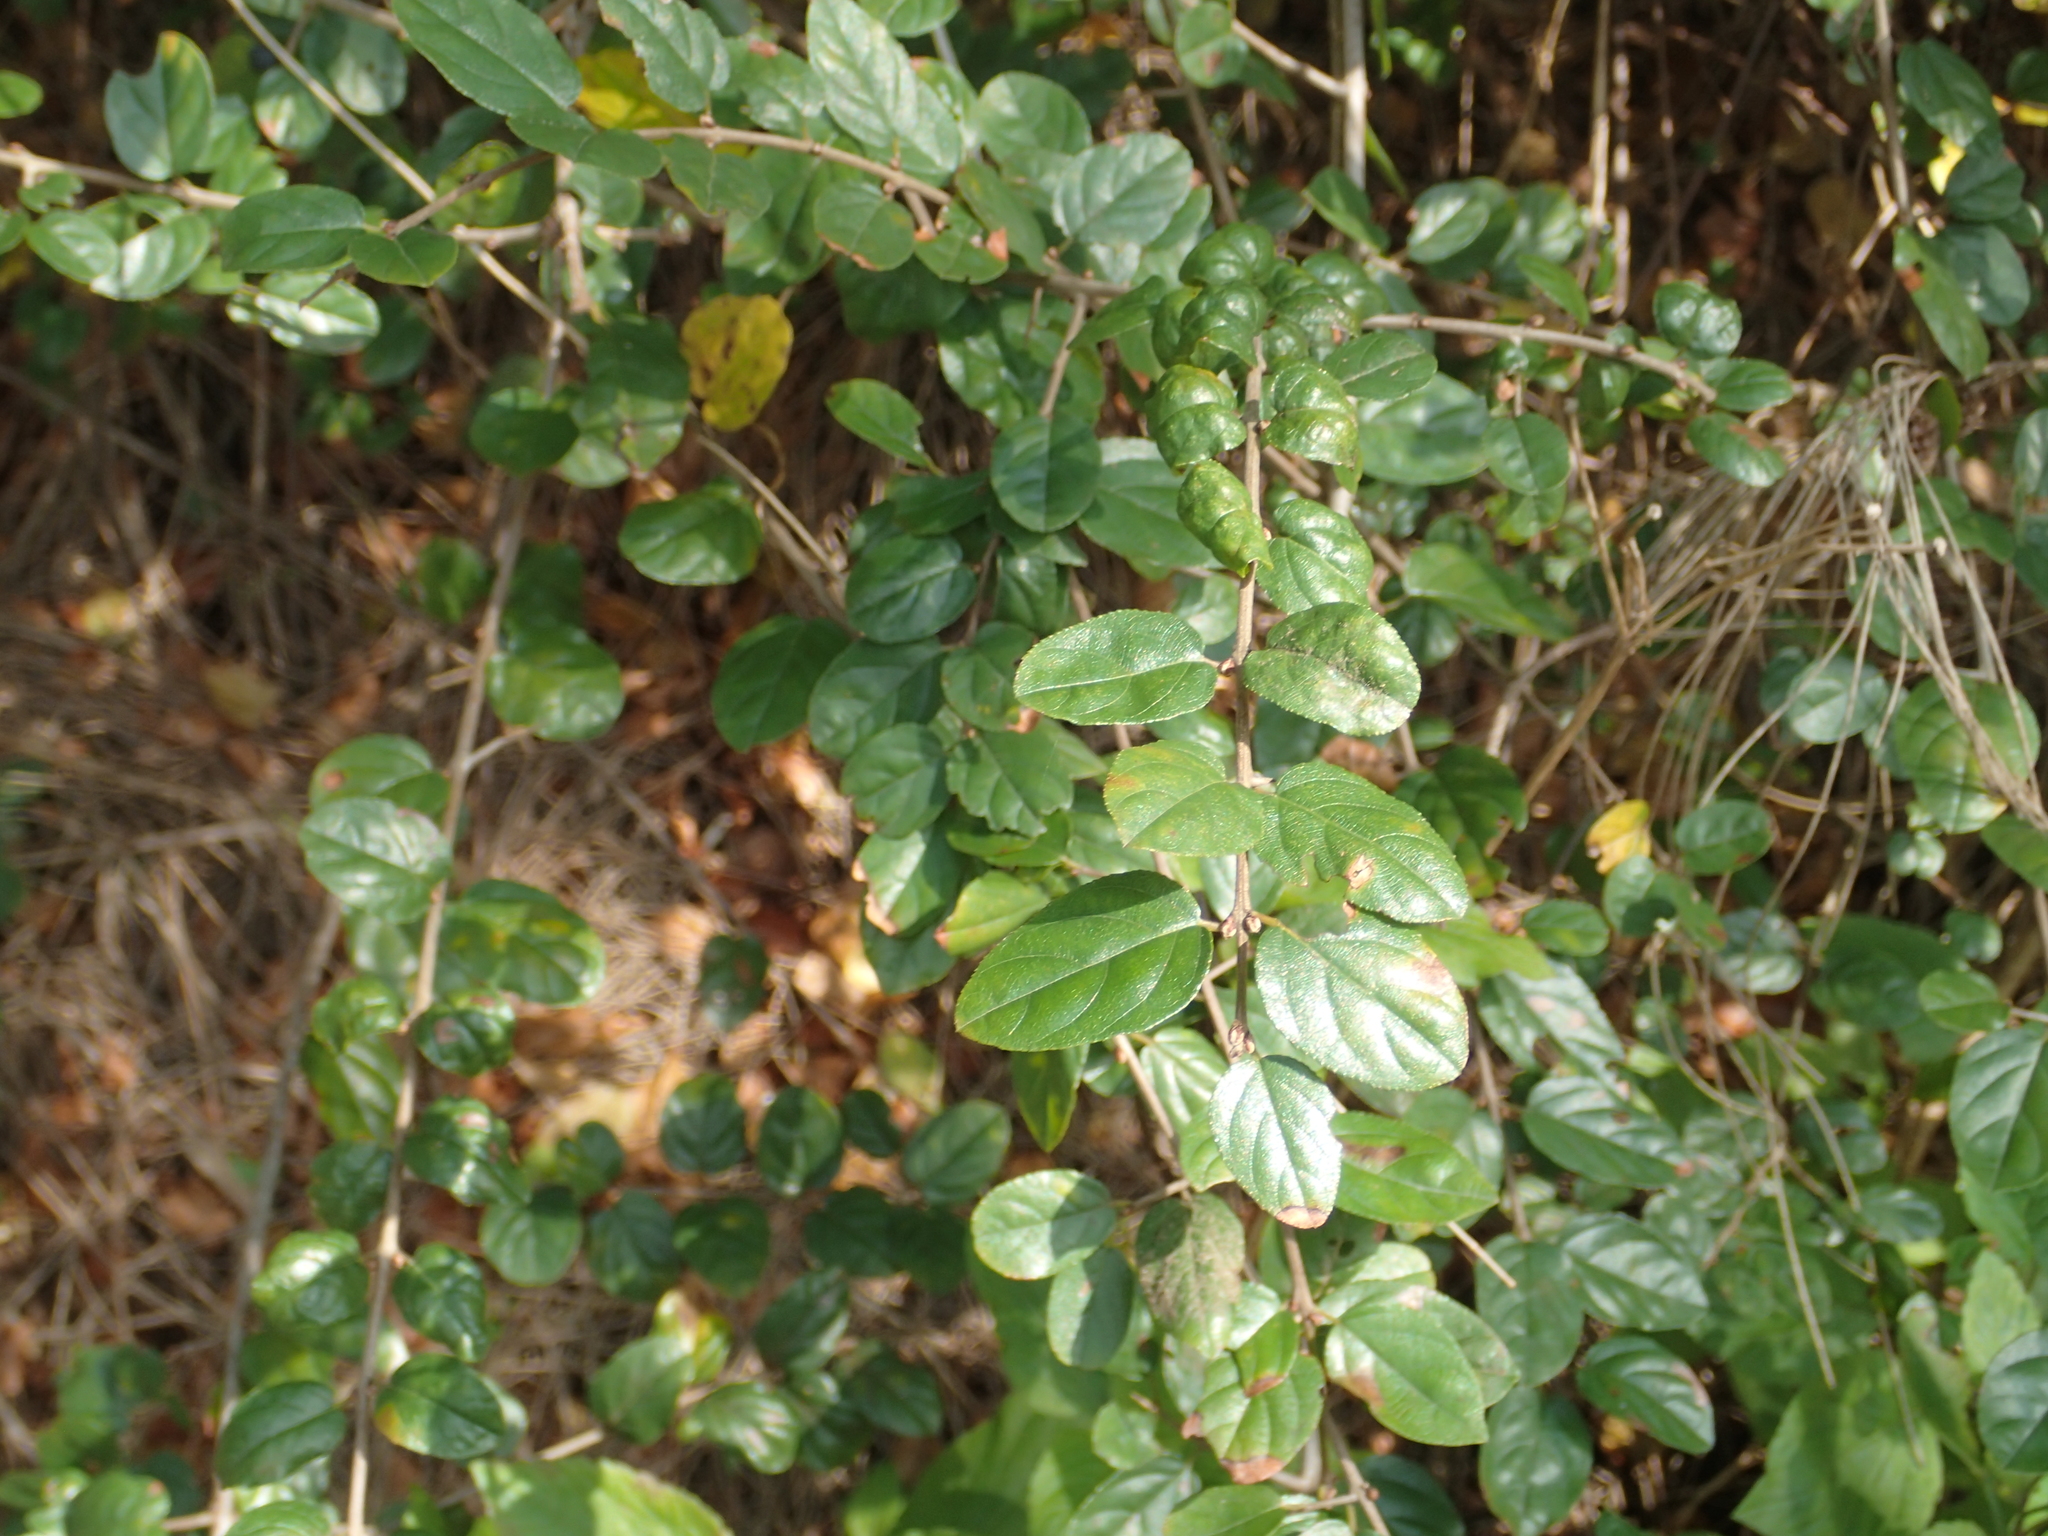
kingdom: Plantae
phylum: Tracheophyta
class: Magnoliopsida
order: Rosales
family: Rhamnaceae
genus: Sageretia
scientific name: Sageretia thea
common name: Pauper's-tea
